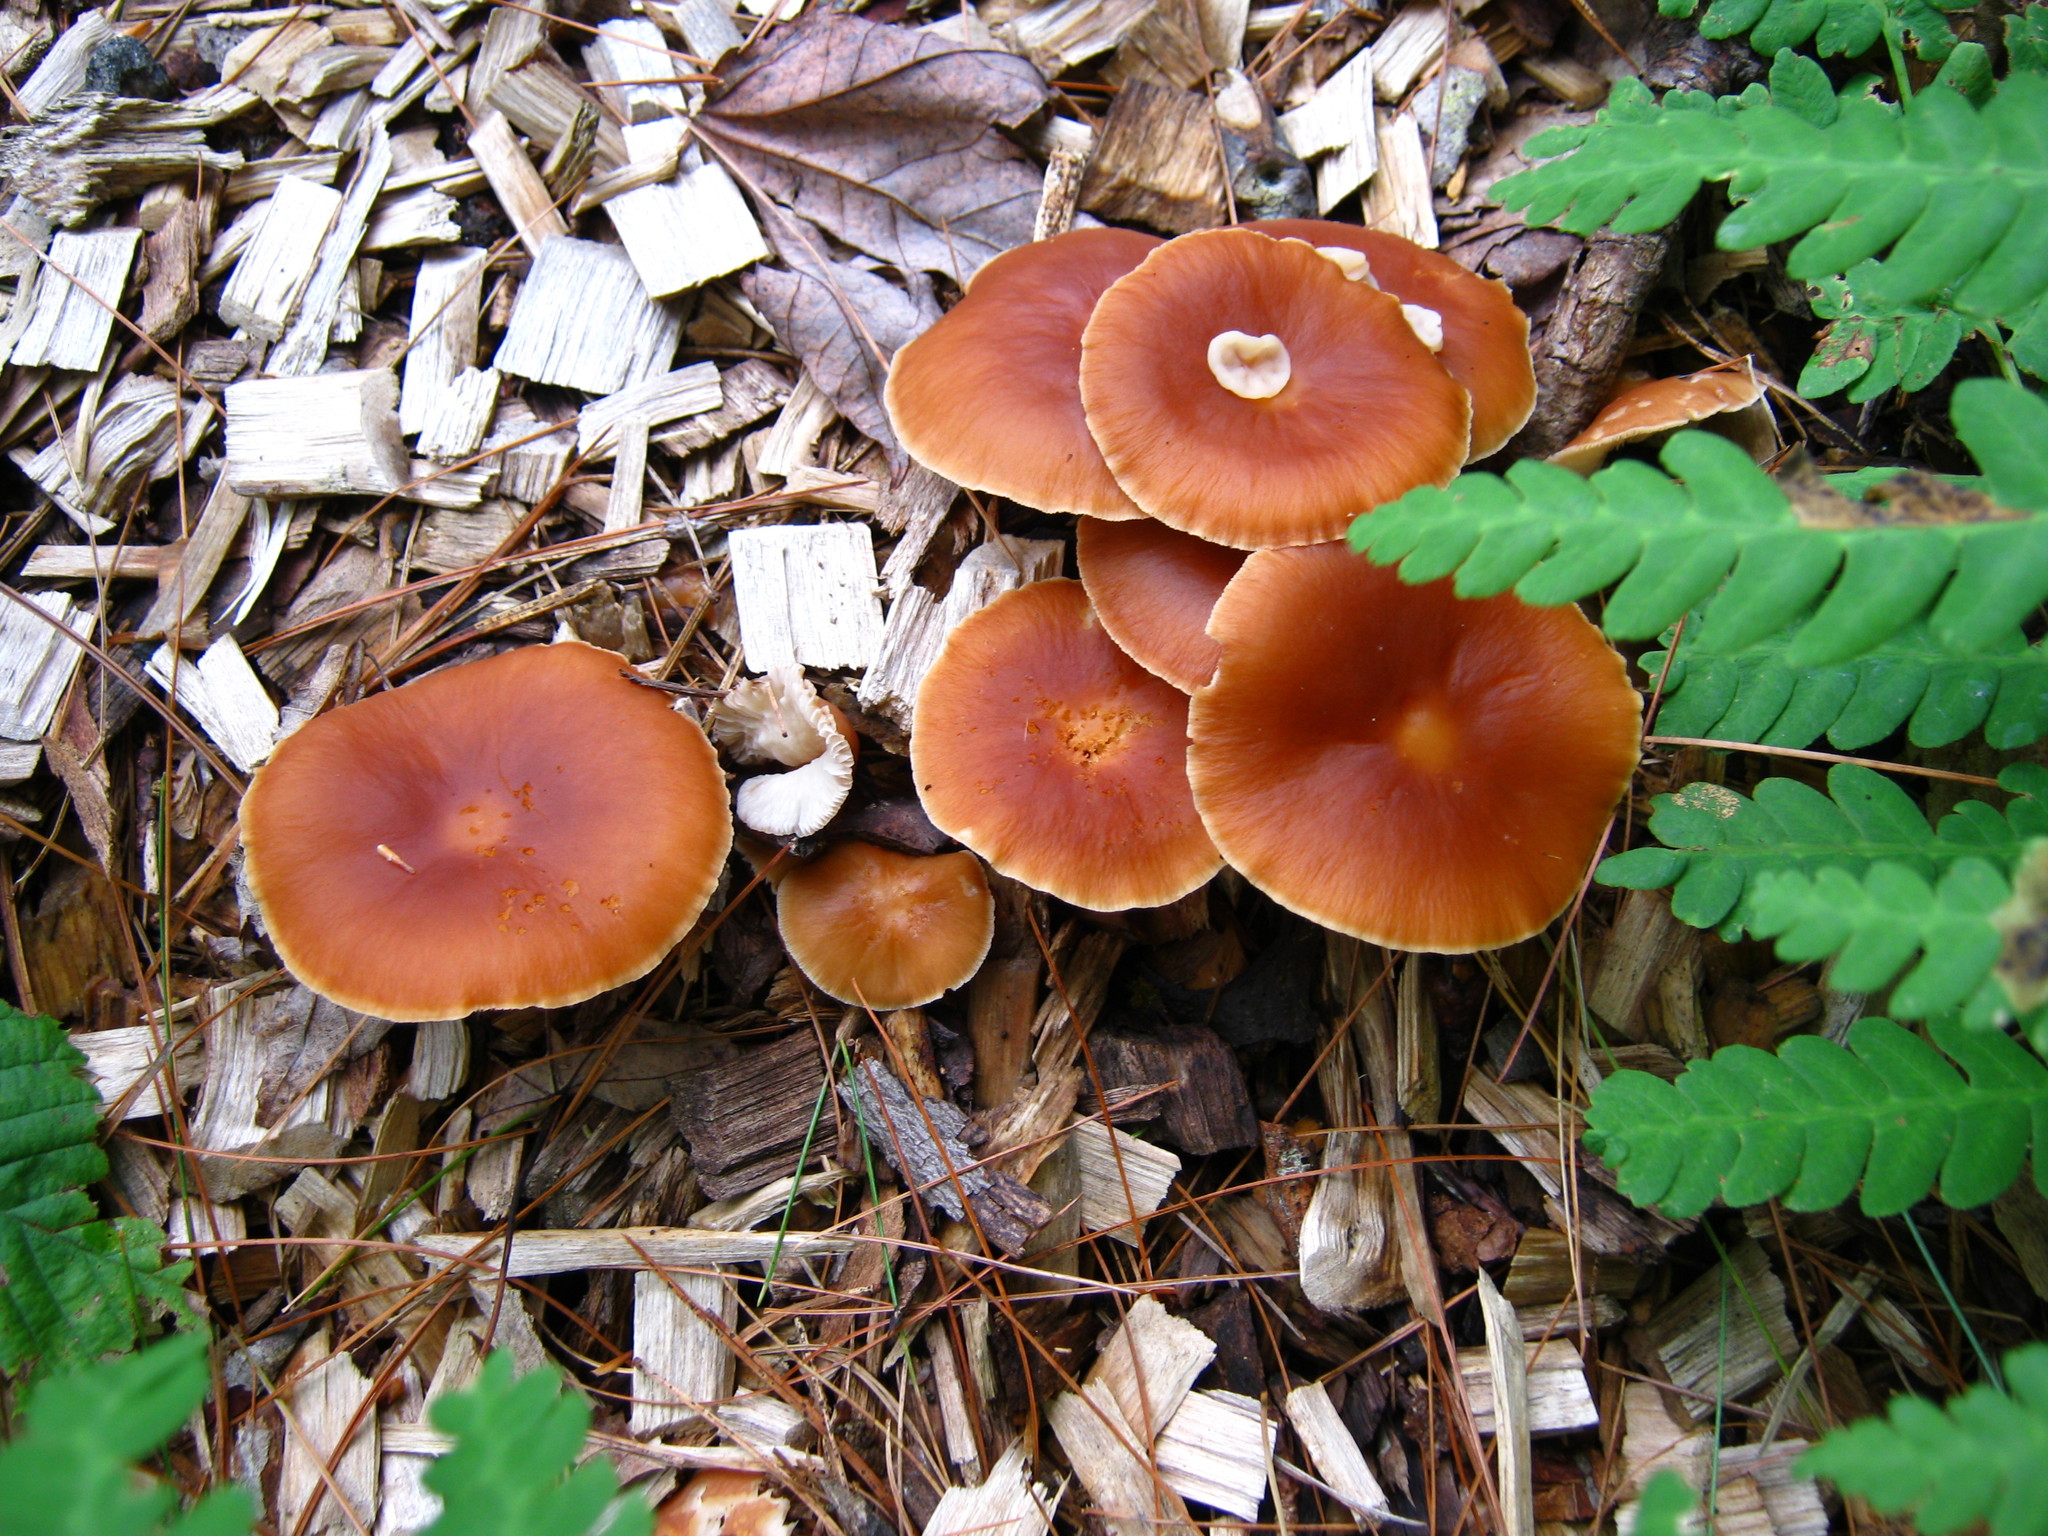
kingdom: Fungi
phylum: Basidiomycota
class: Tremellomycetes
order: Filobasidiales
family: Filobasidiaceae
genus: Syzygospora
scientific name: Syzygospora mycetophila
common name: Collybia clouds
